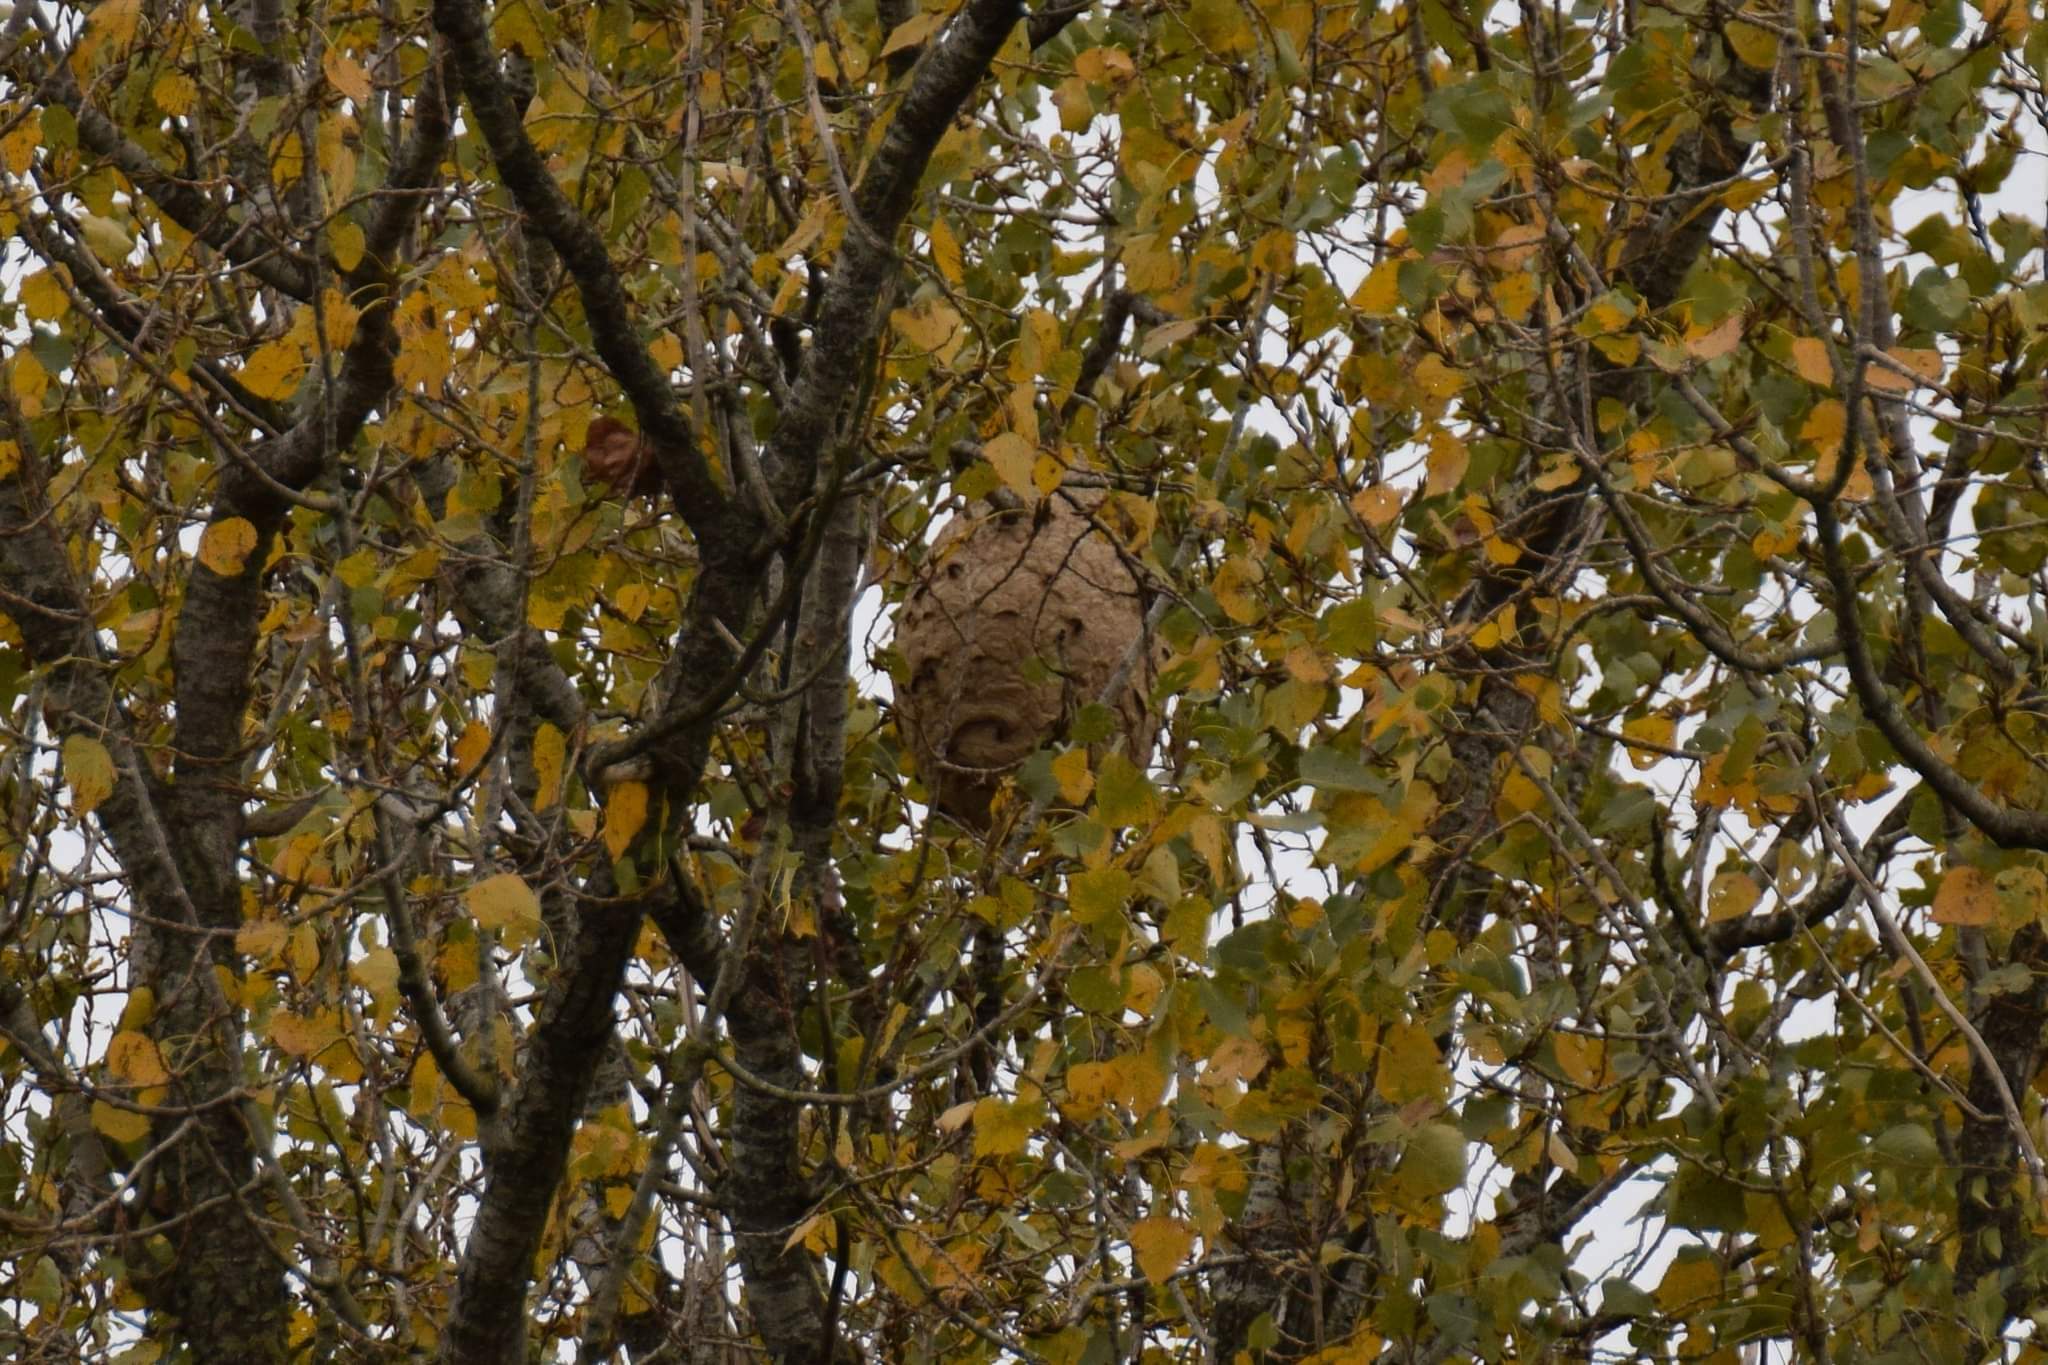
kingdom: Animalia
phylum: Arthropoda
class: Insecta
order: Hymenoptera
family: Vespidae
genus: Vespa
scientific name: Vespa velutina
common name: Asian hornet
